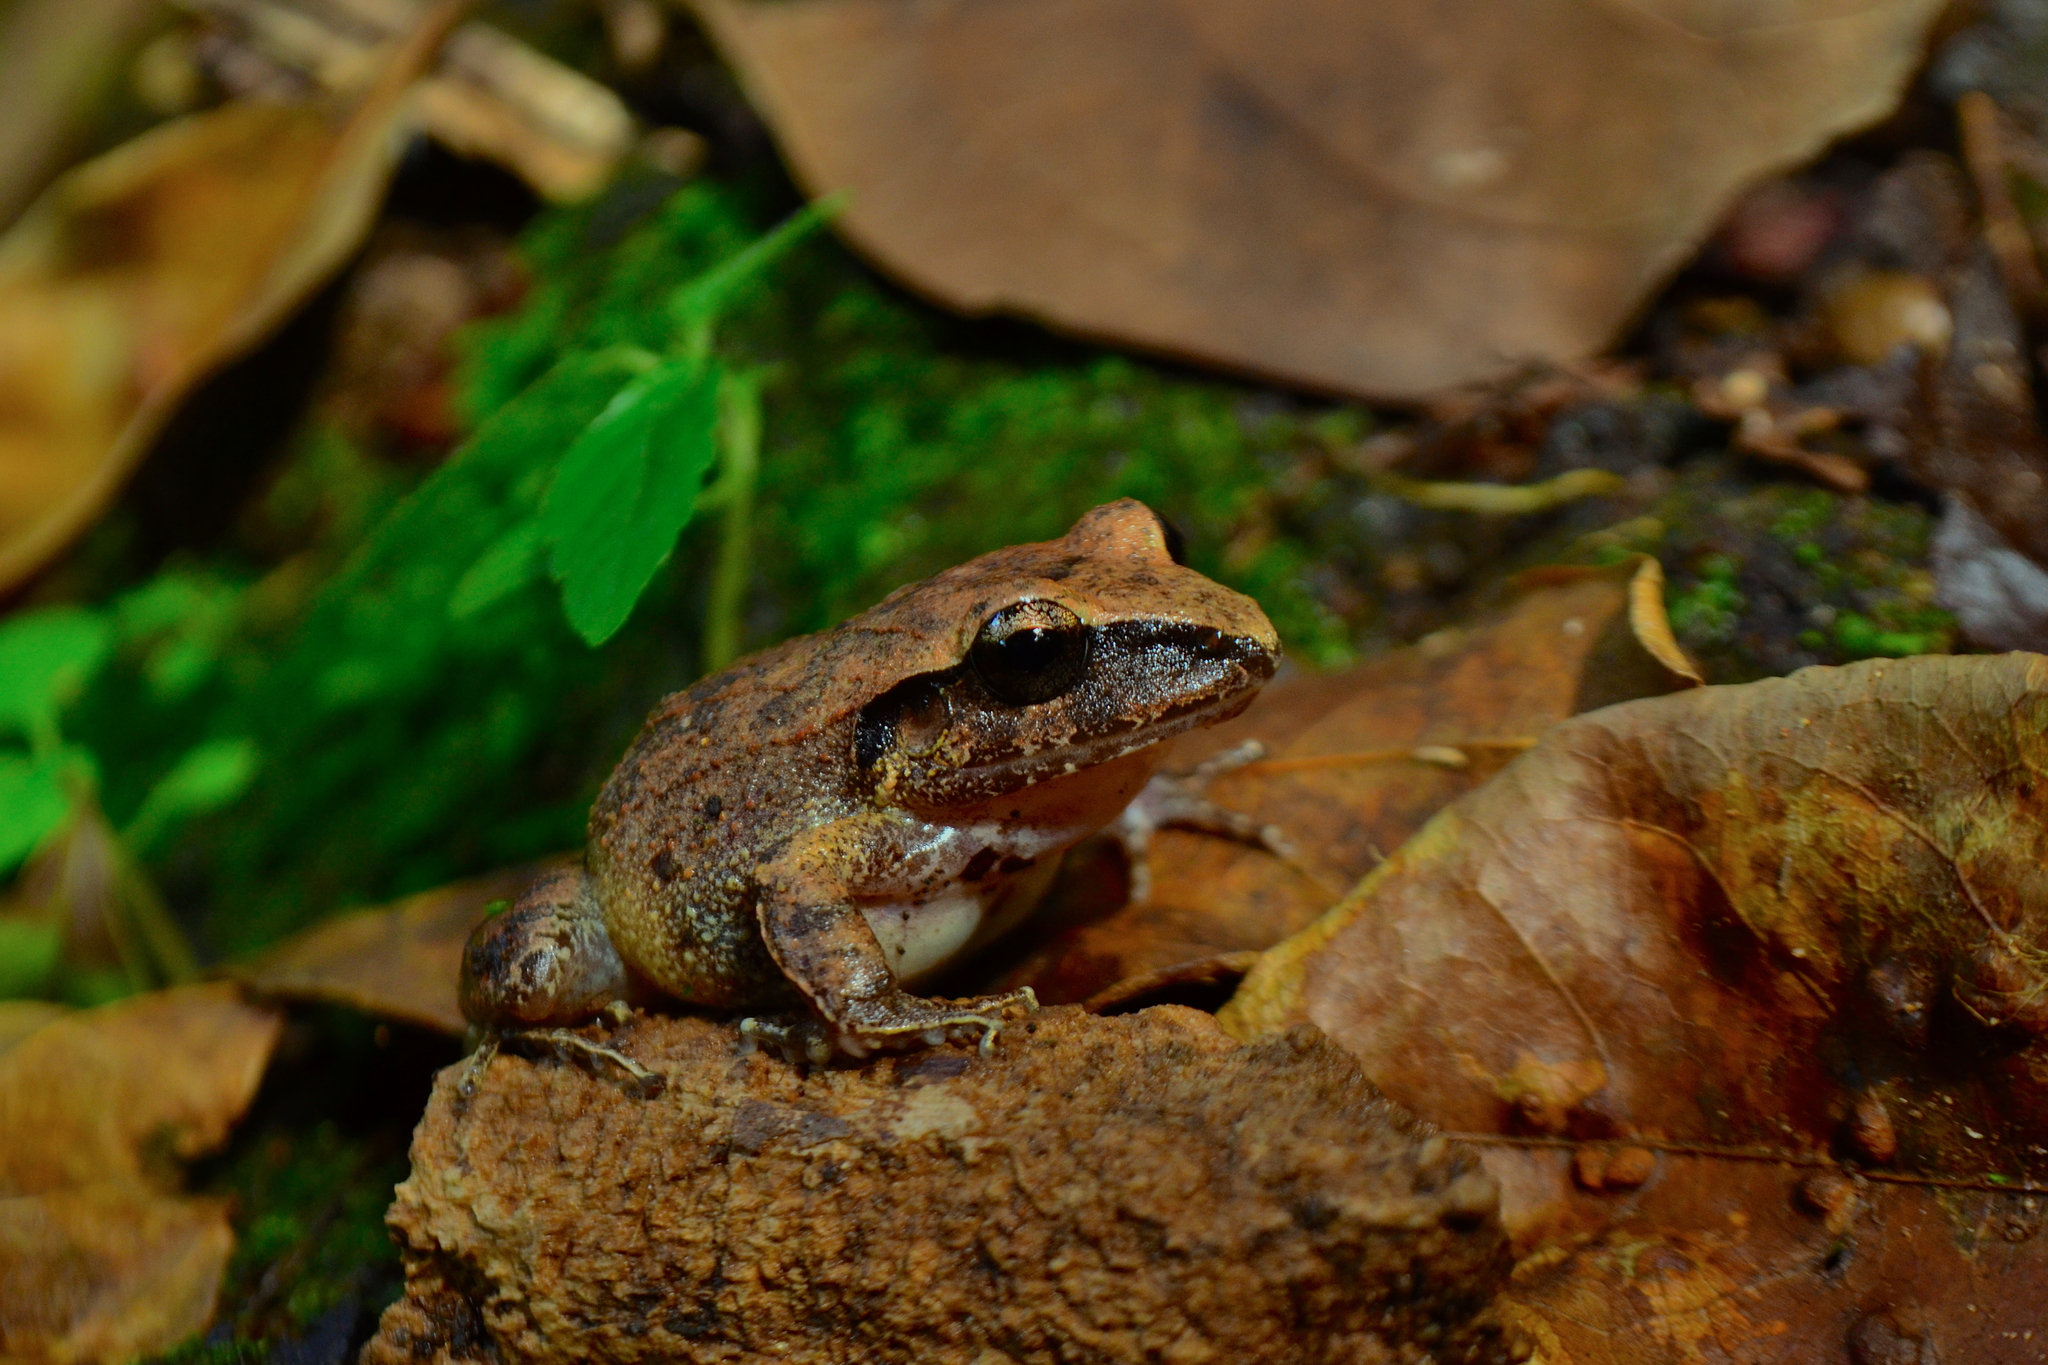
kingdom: Animalia
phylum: Chordata
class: Amphibia
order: Anura
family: Craugastoridae
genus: Craugastor
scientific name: Craugastor rhodopis
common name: Polymorphic robber frog
